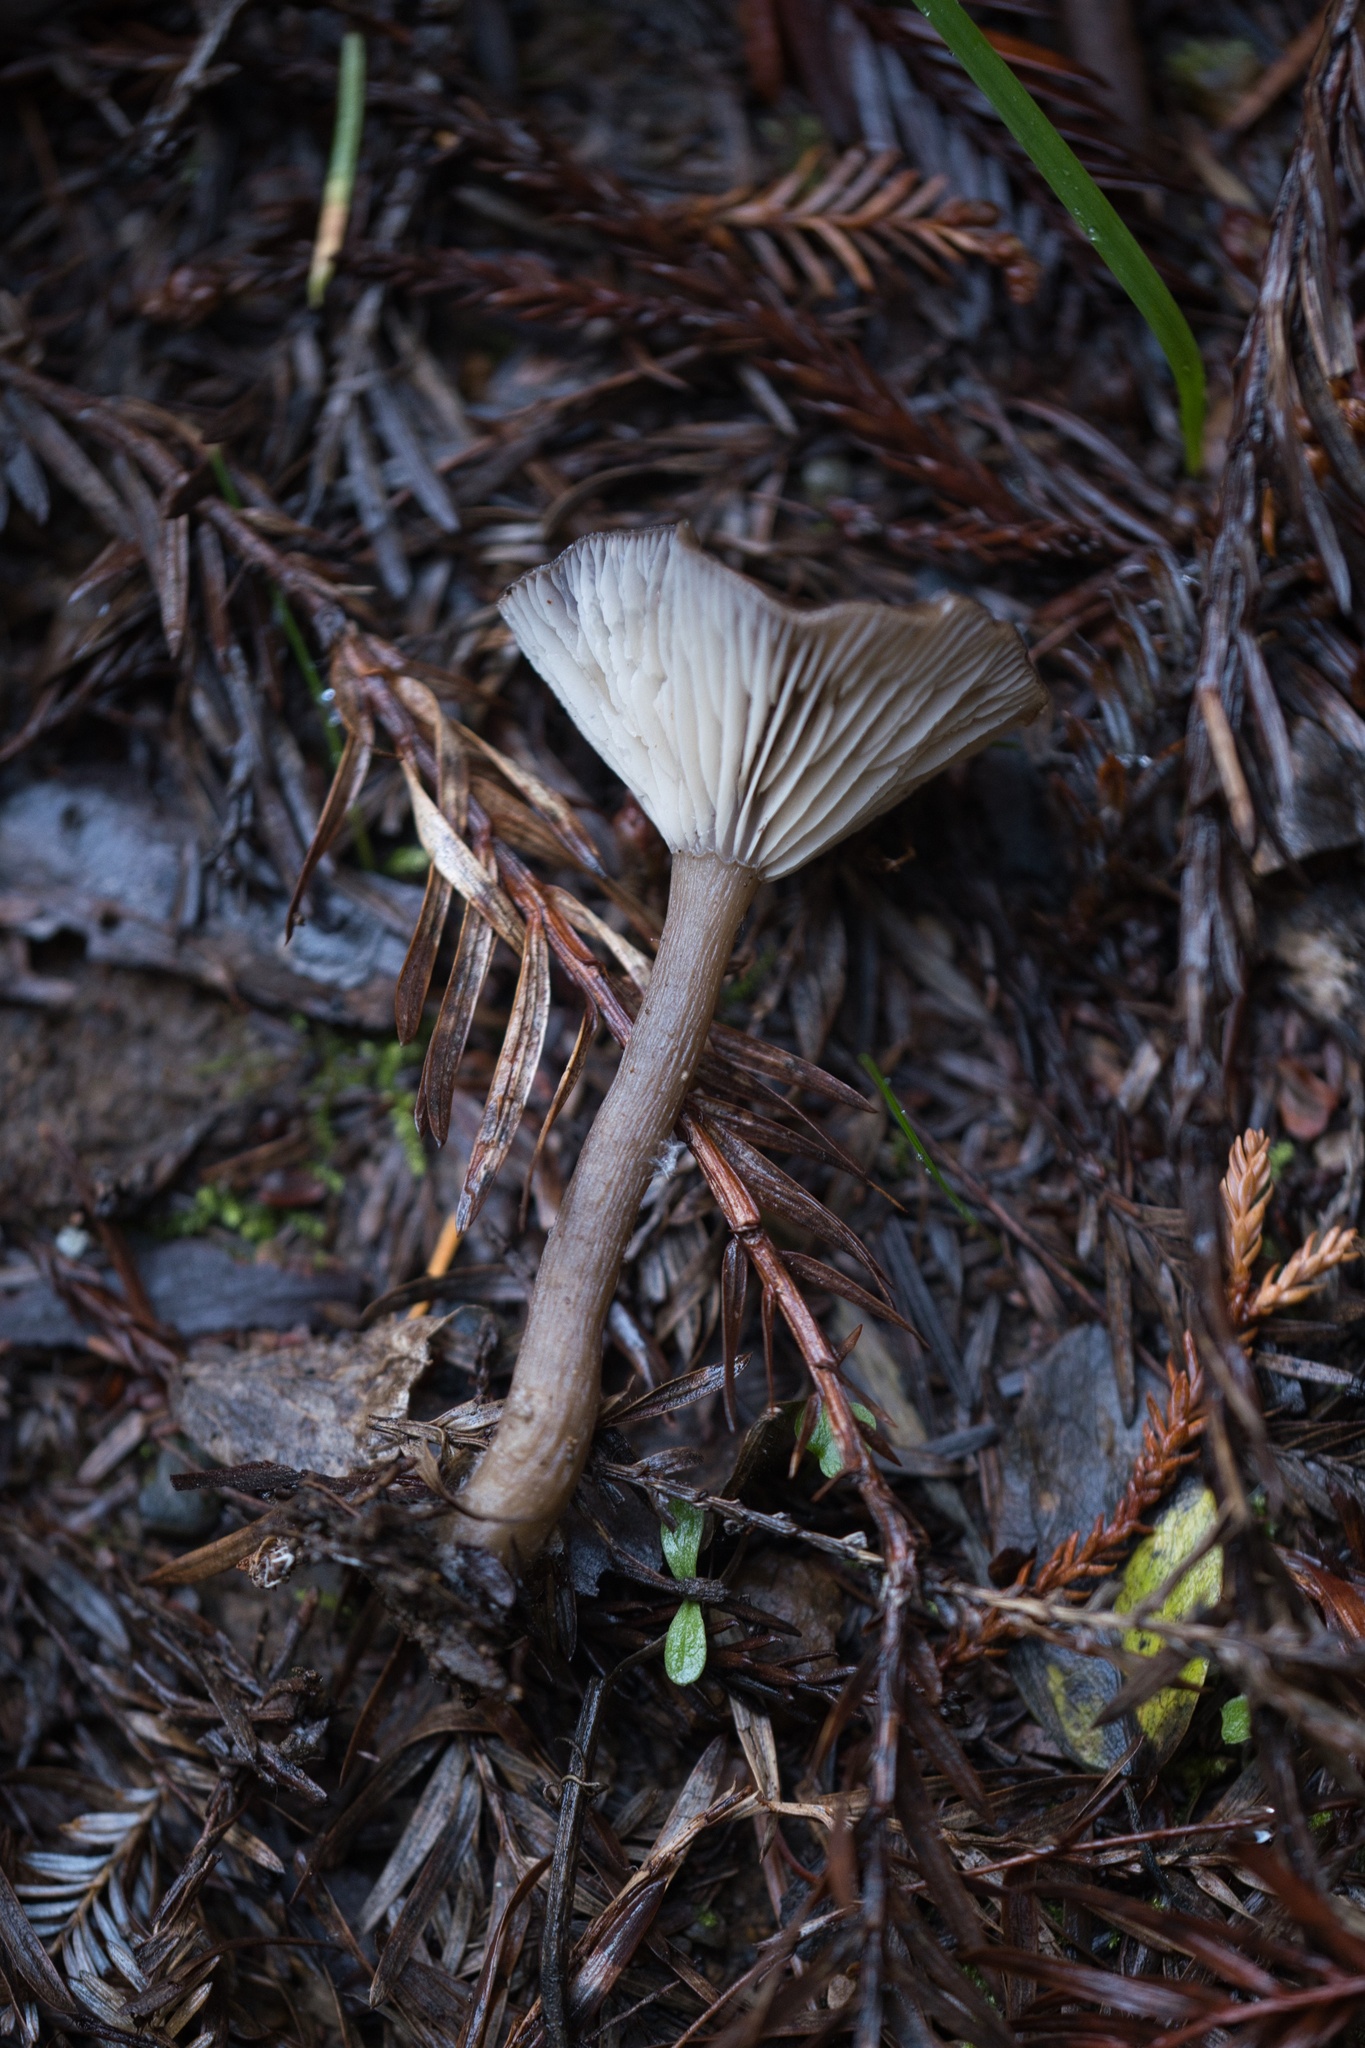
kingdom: Fungi
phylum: Basidiomycota
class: Agaricomycetes
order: Agaricales
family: Pseudoclitocybaceae
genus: Pseudoclitocybe
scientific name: Pseudoclitocybe cyathiformis
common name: Goblet
